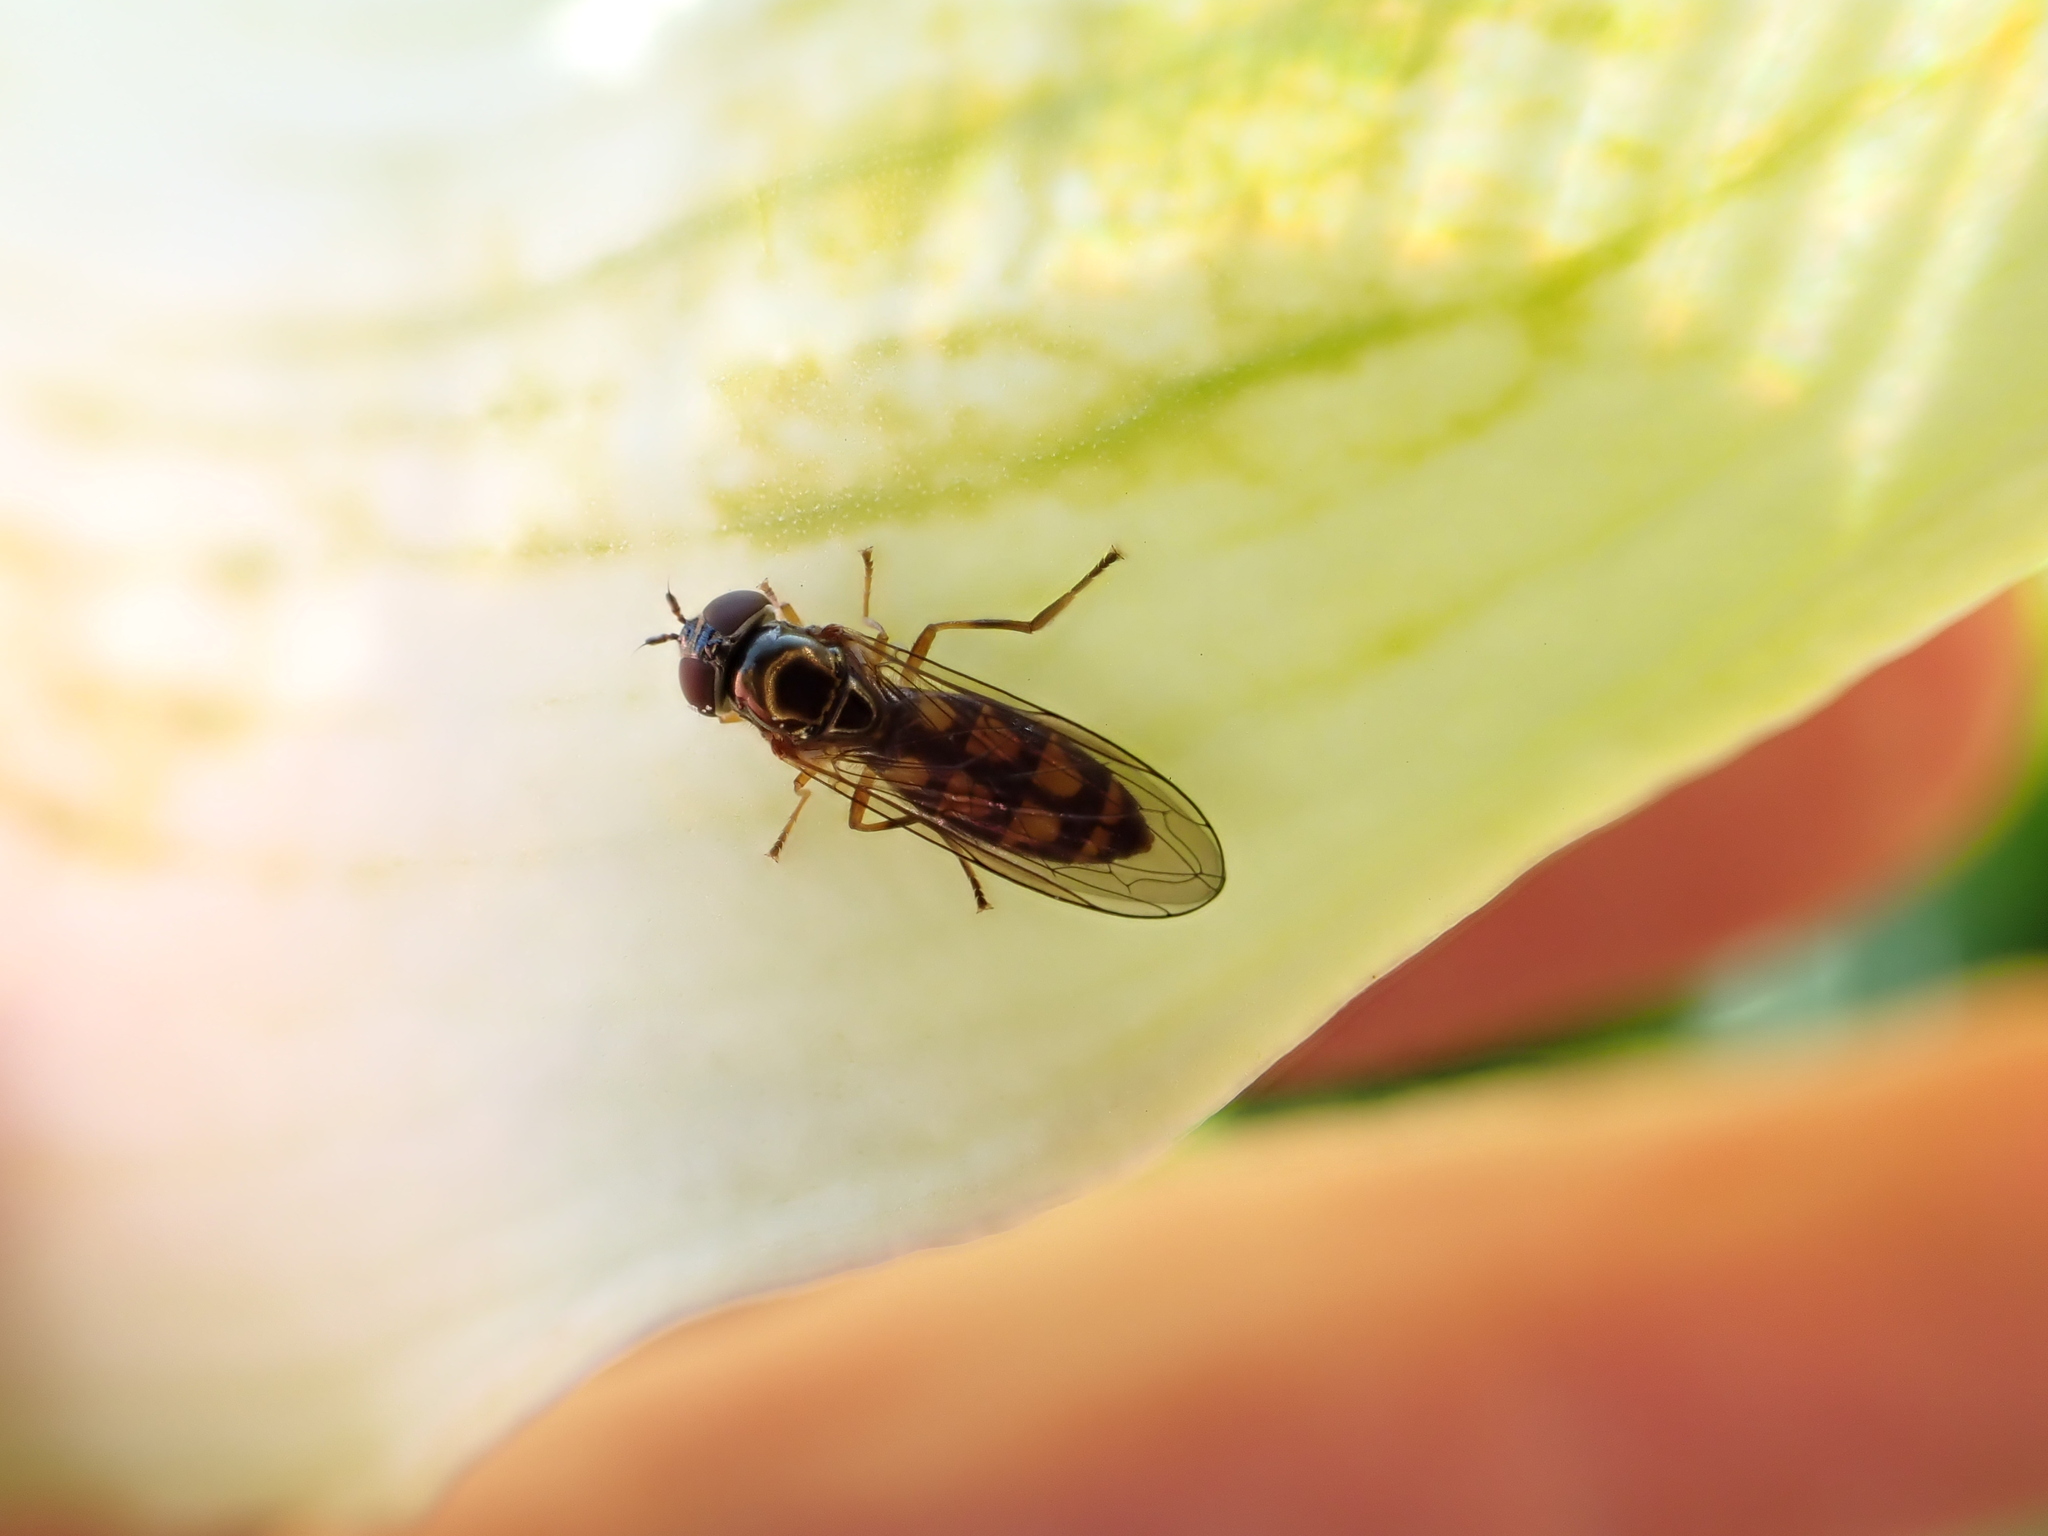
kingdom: Animalia
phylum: Arthropoda
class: Insecta
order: Diptera
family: Syrphidae
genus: Melanostoma
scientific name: Melanostoma fasciatum
